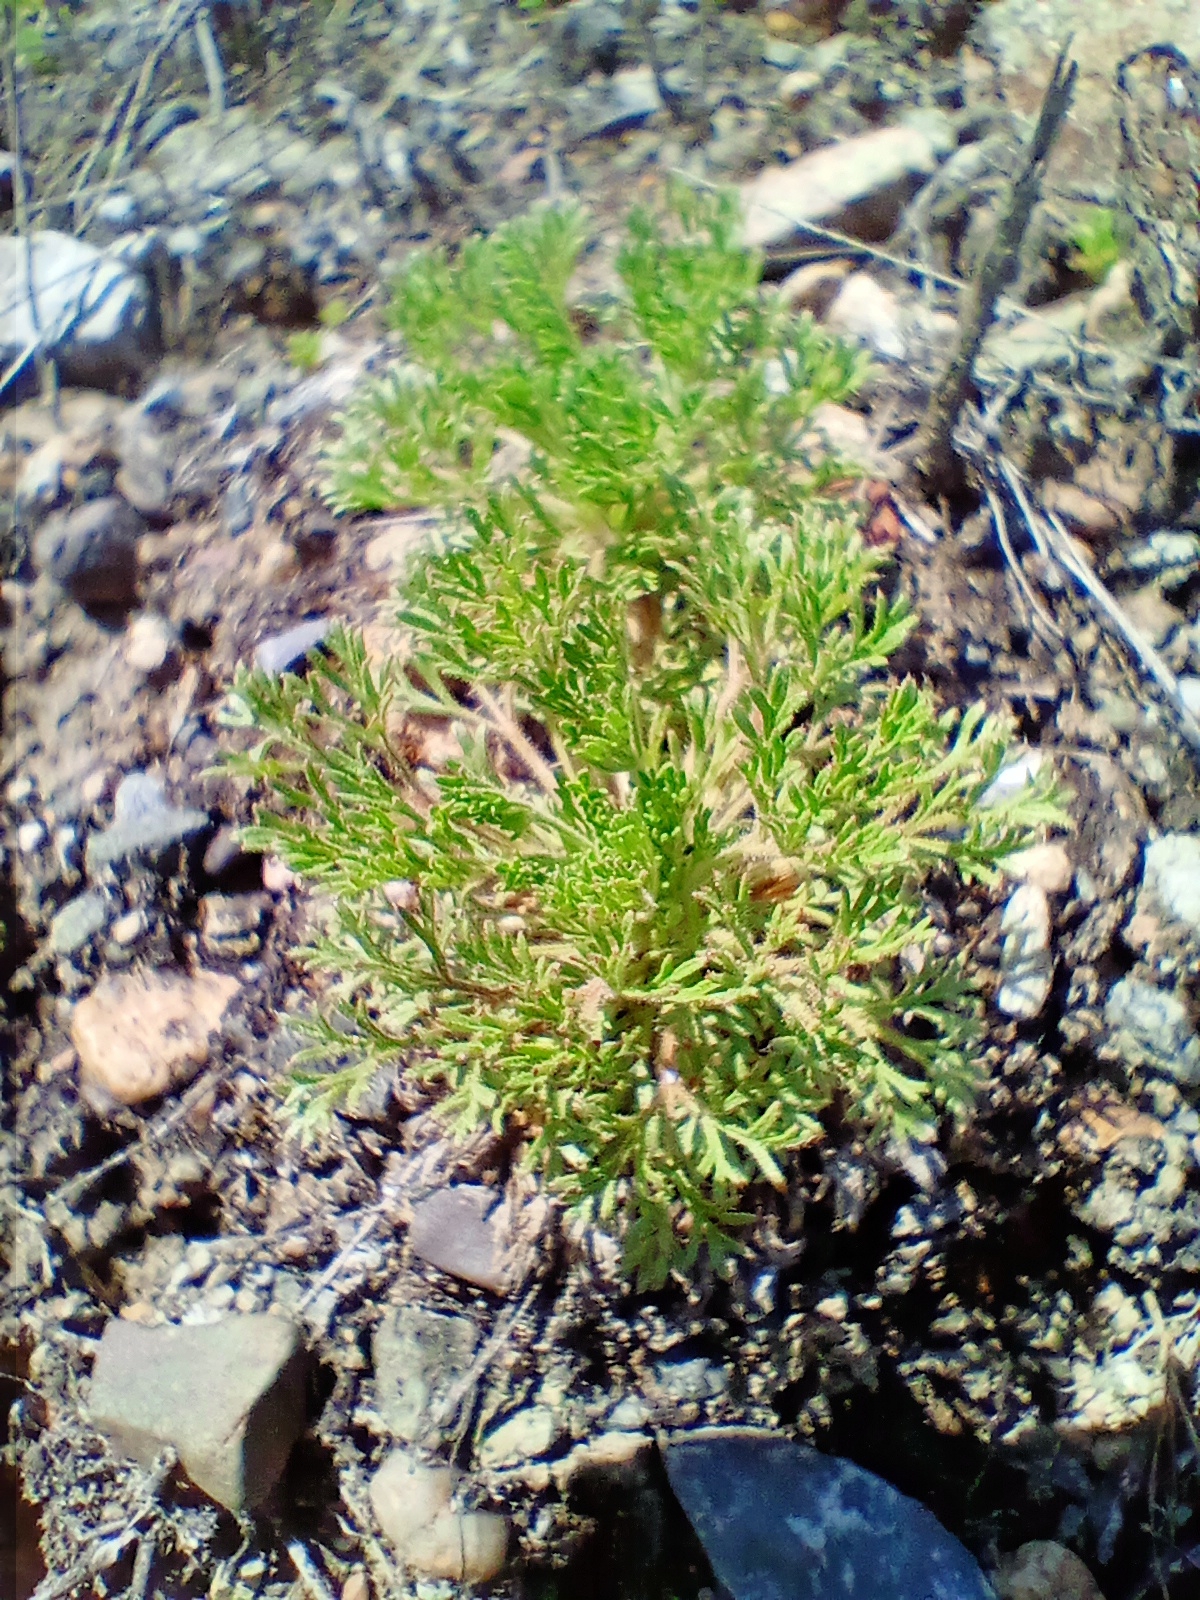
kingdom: Plantae
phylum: Tracheophyta
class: Magnoliopsida
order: Rosales
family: Rosaceae
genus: Chamaerhodos
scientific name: Chamaerhodos erecta
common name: American chamaerhodos
